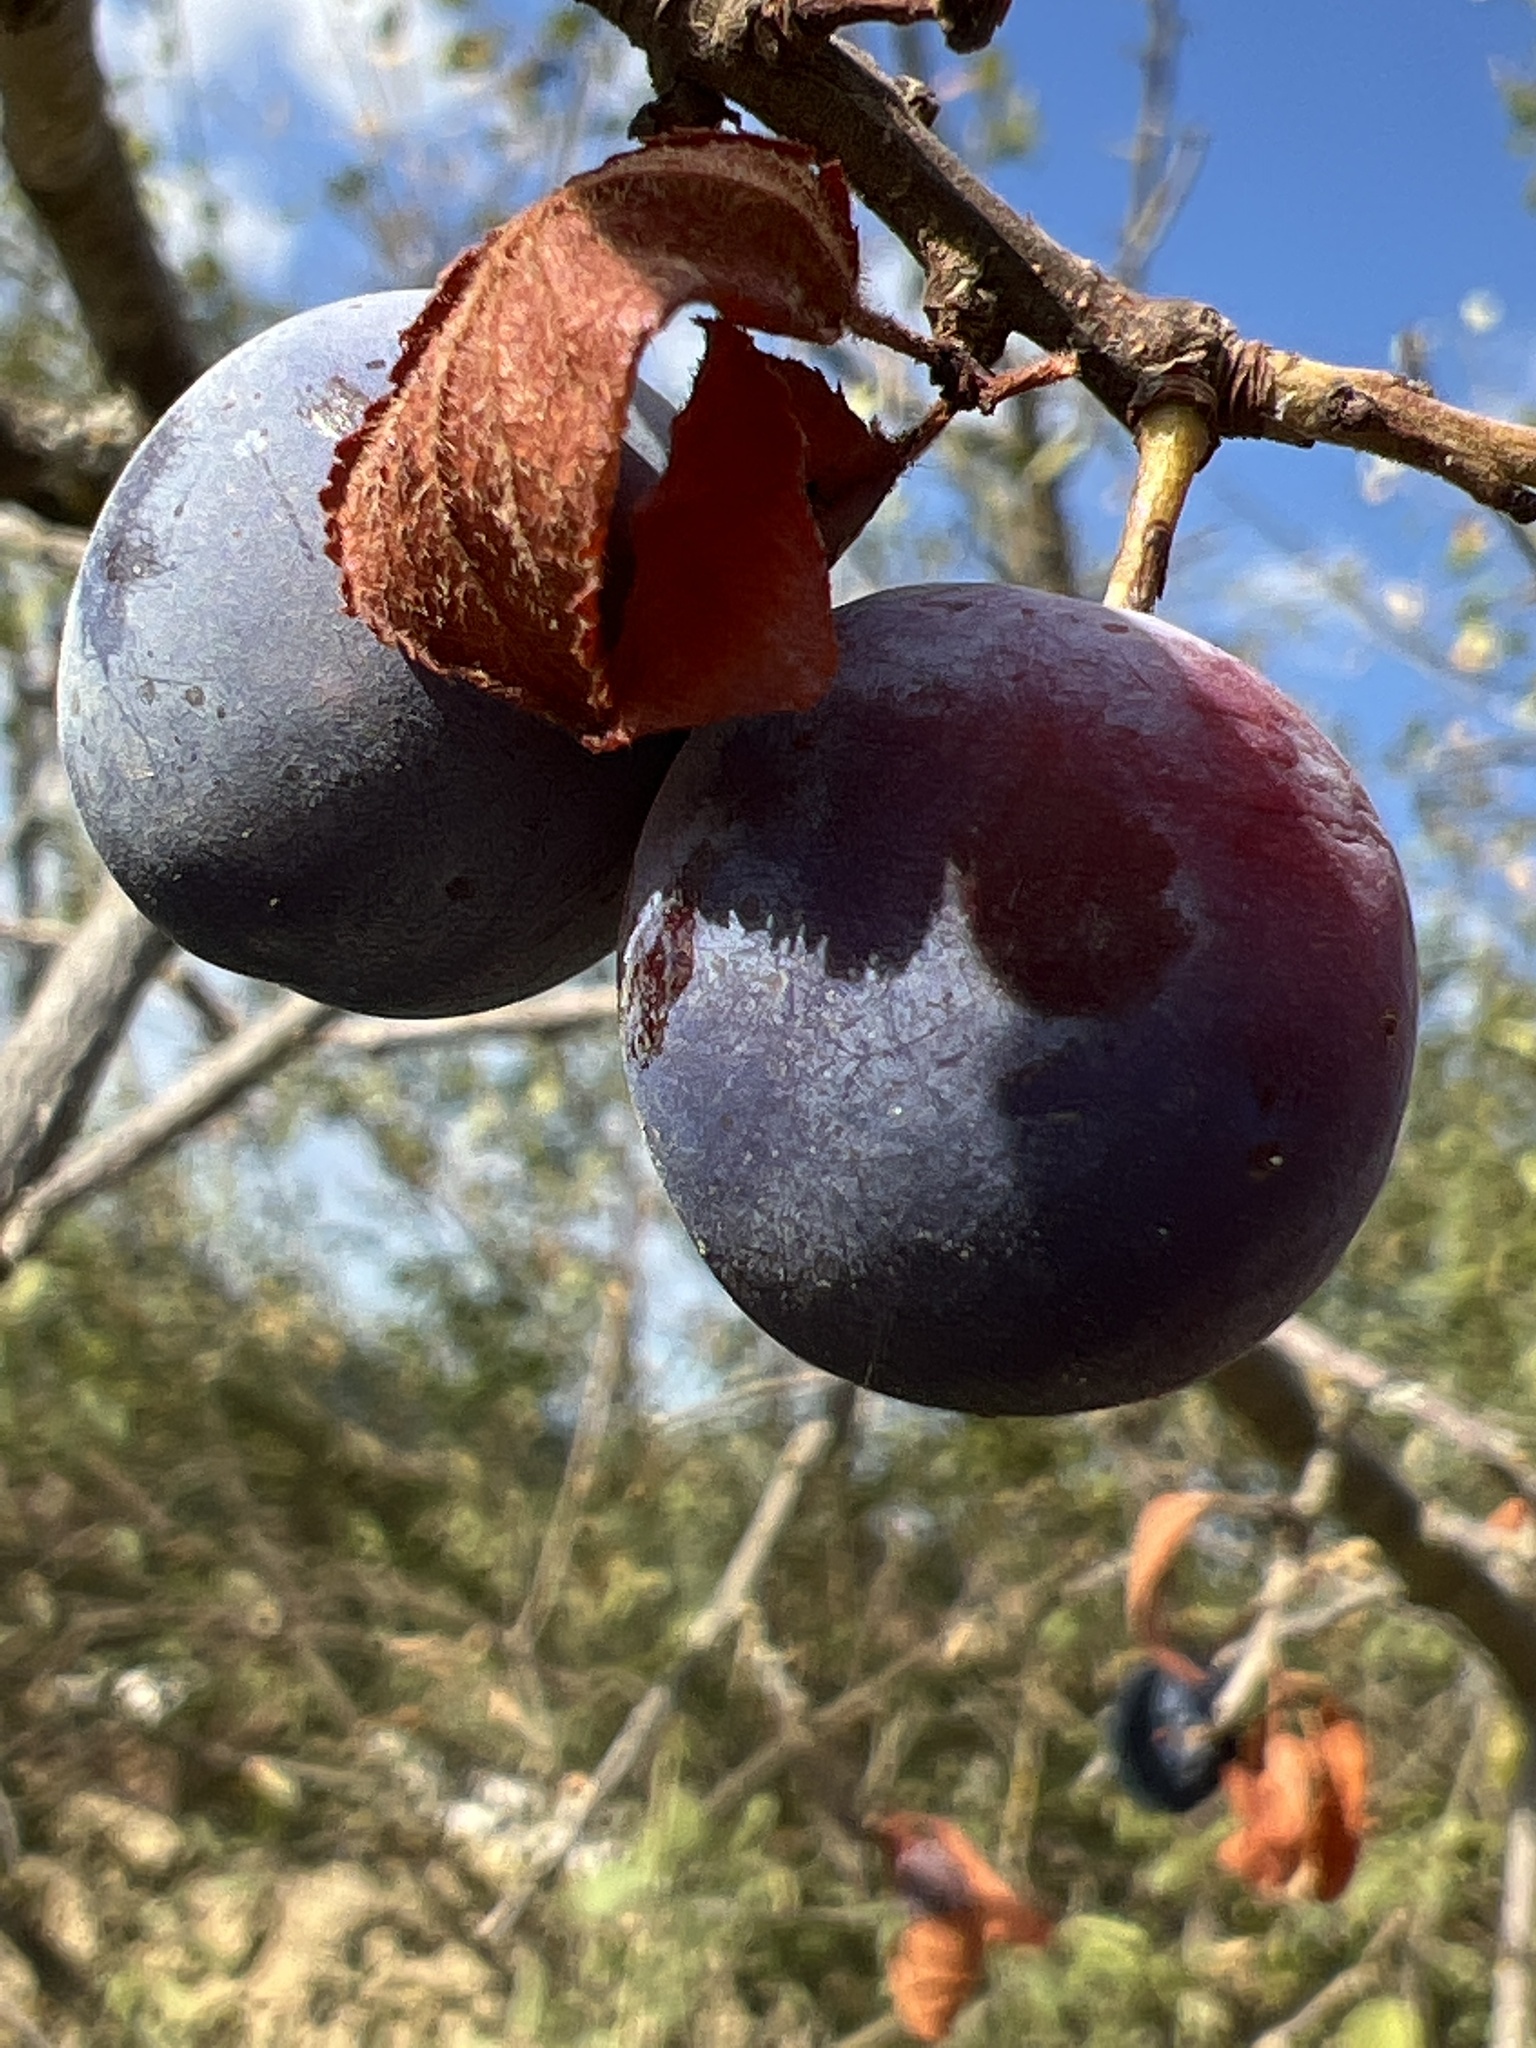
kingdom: Plantae
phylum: Tracheophyta
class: Magnoliopsida
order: Rosales
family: Rosaceae
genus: Prunus
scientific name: Prunus spinosa
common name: Blackthorn
